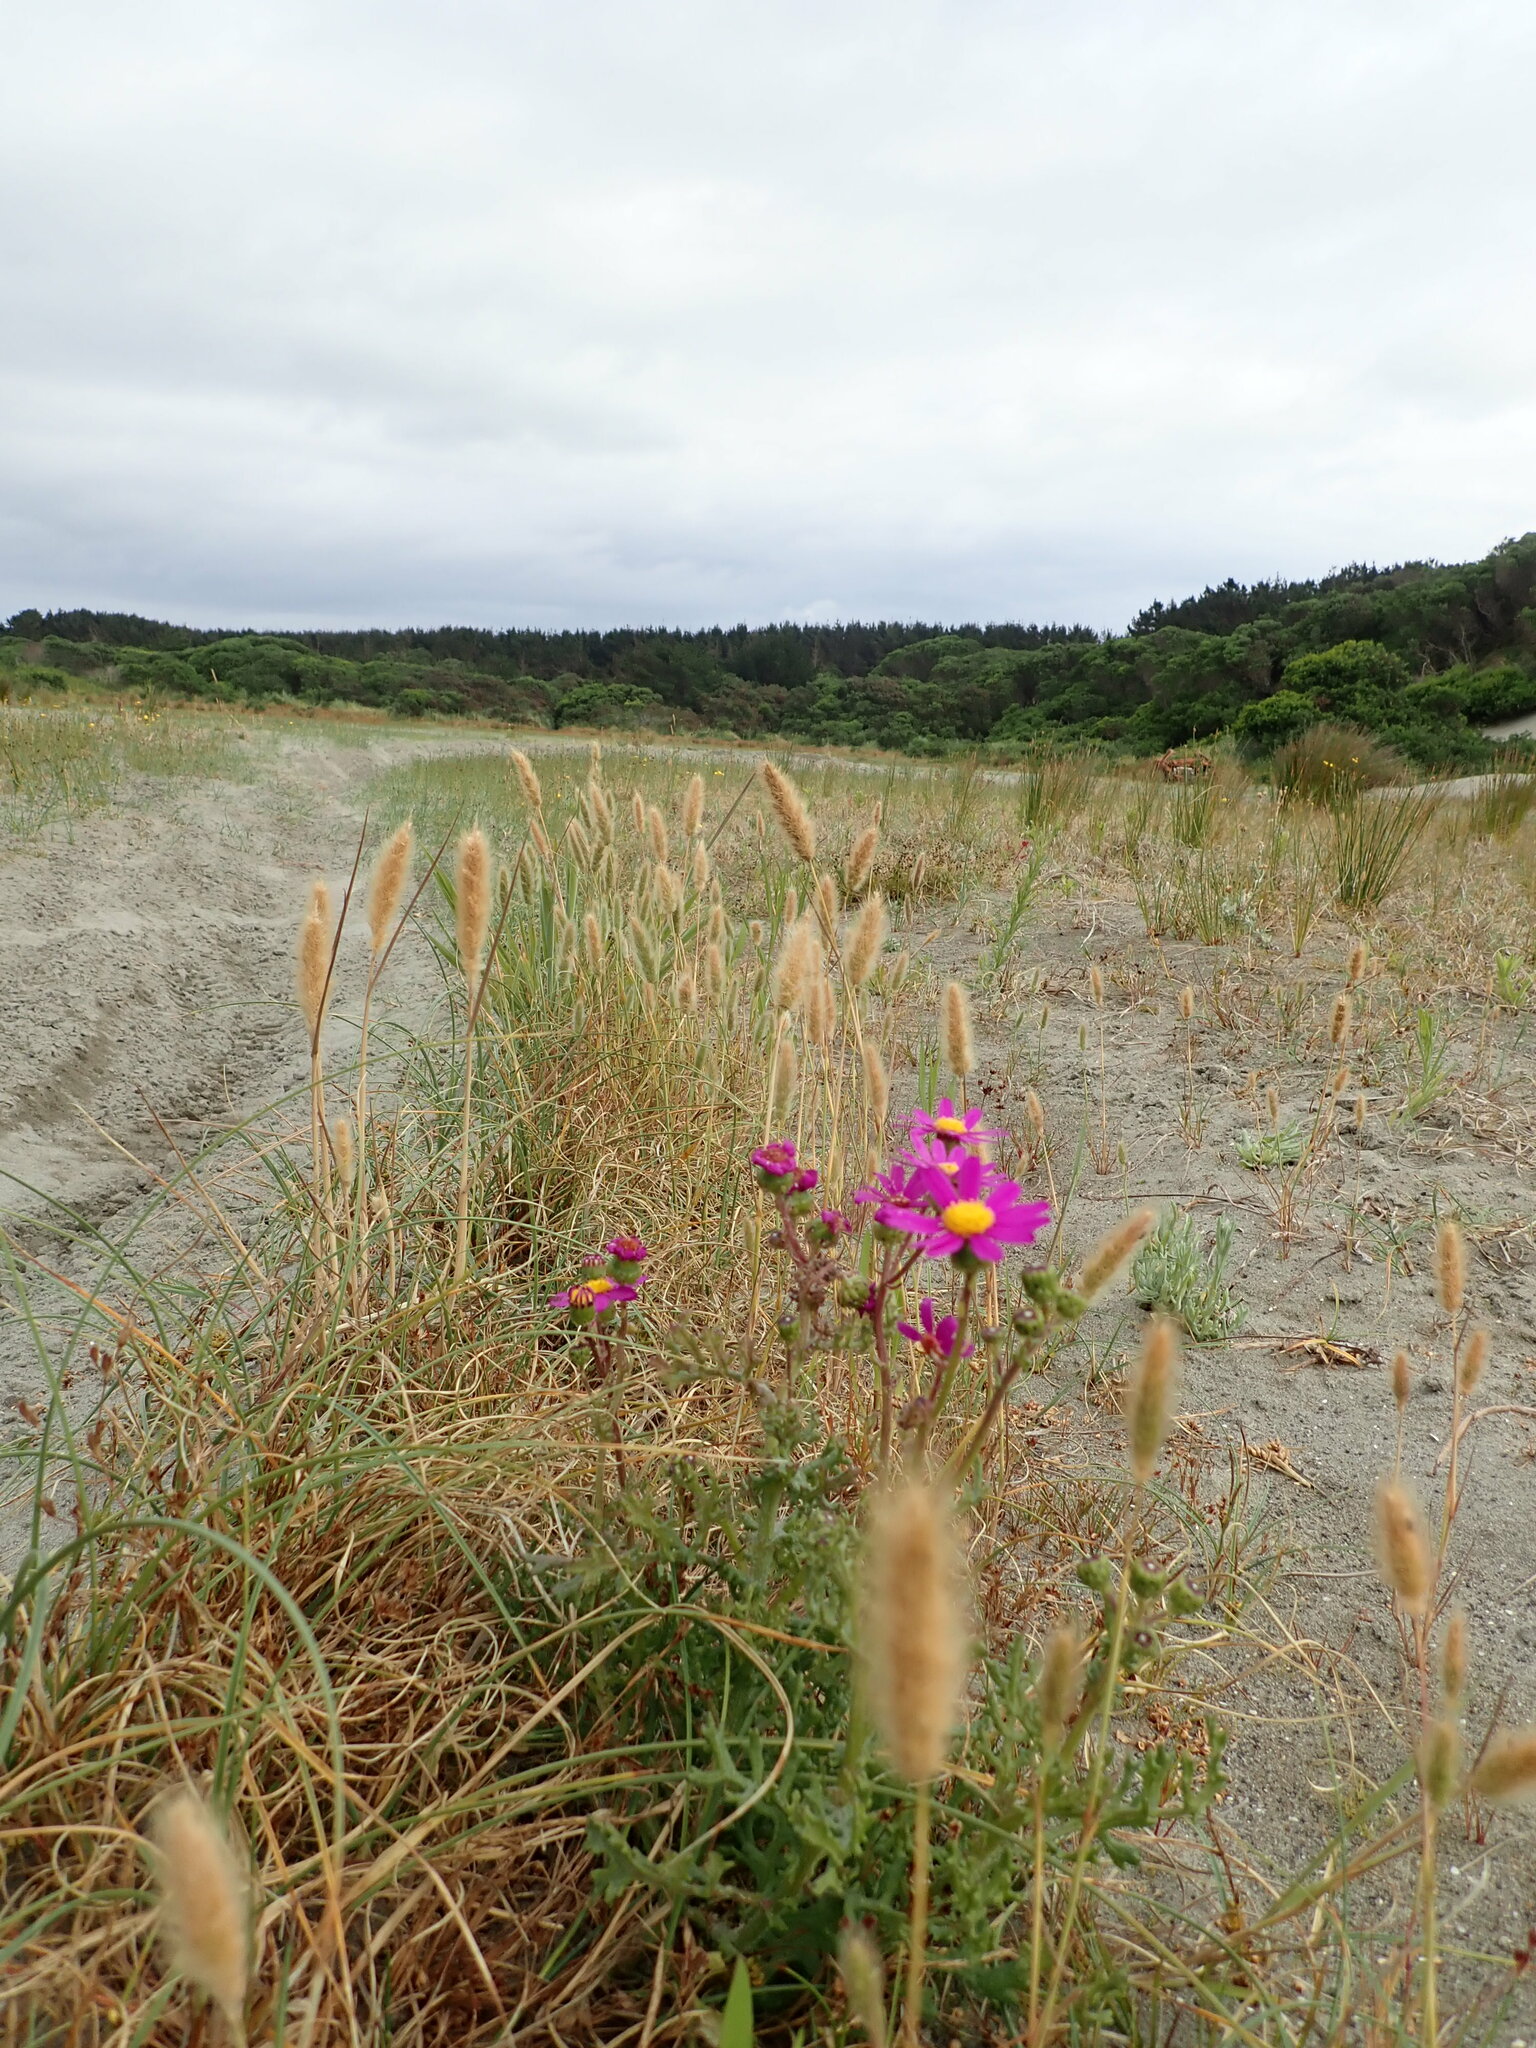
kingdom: Plantae
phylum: Tracheophyta
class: Magnoliopsida
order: Asterales
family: Asteraceae
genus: Senecio
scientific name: Senecio elegans
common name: Purple groundsel
